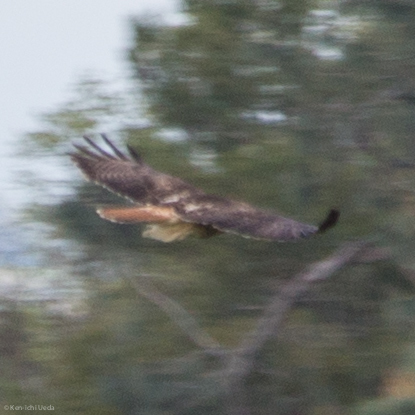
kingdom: Animalia
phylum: Chordata
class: Aves
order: Accipitriformes
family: Accipitridae
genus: Buteo
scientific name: Buteo jamaicensis
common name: Red-tailed hawk
